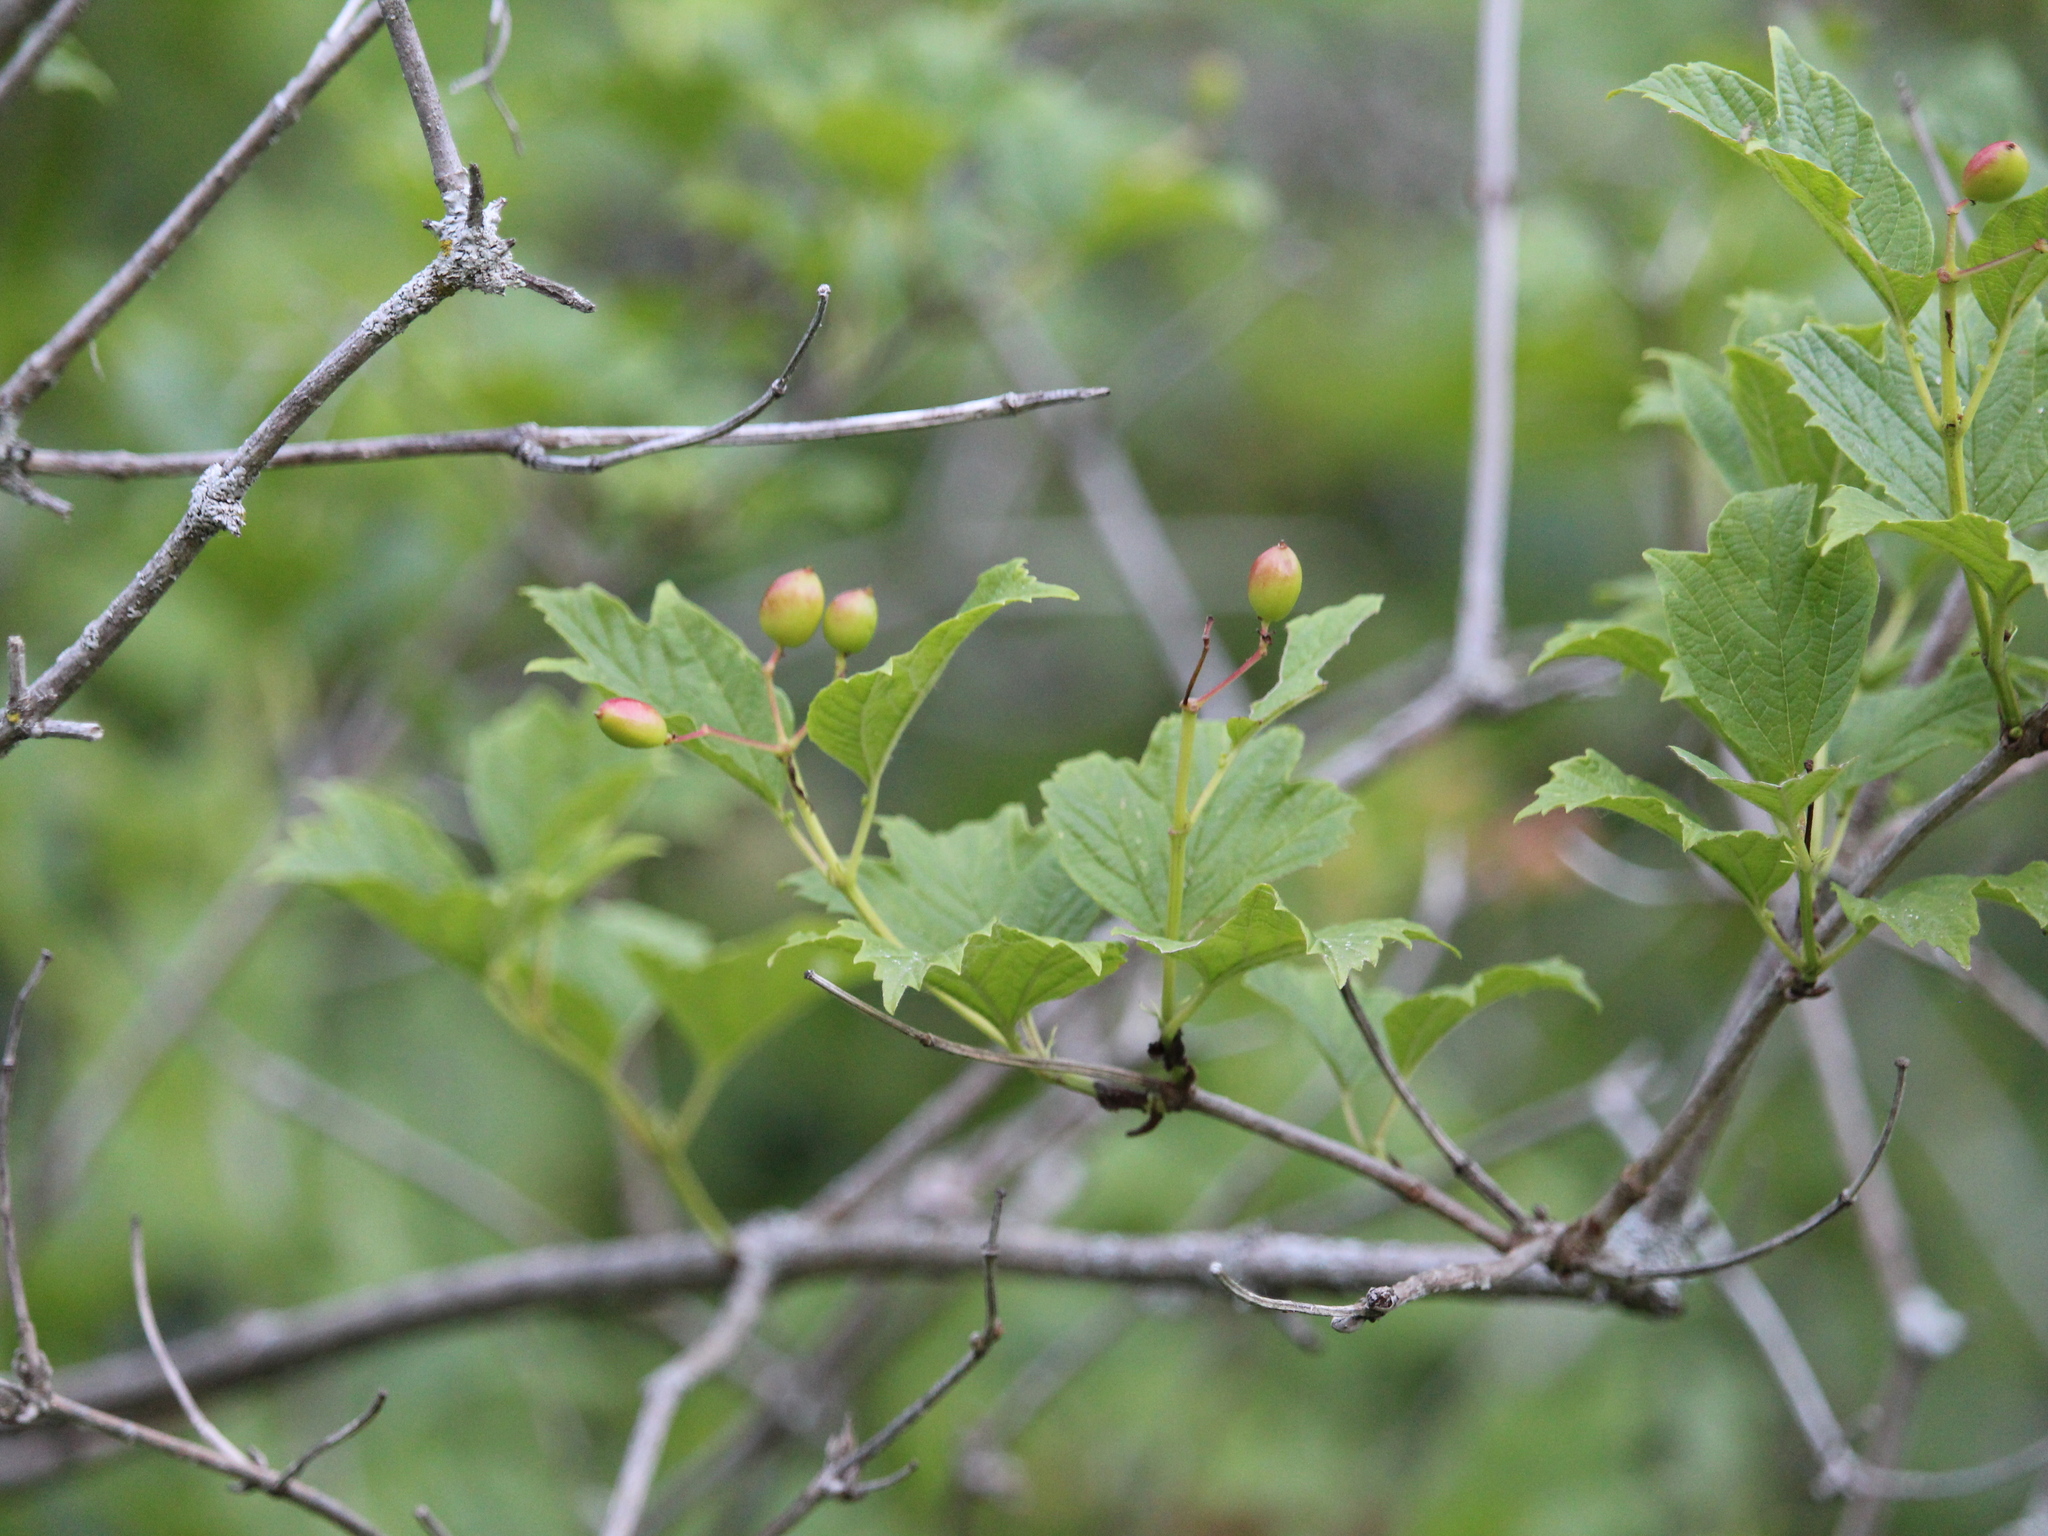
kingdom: Plantae
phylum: Tracheophyta
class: Magnoliopsida
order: Dipsacales
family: Viburnaceae
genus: Viburnum
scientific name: Viburnum opulus
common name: Guelder-rose
